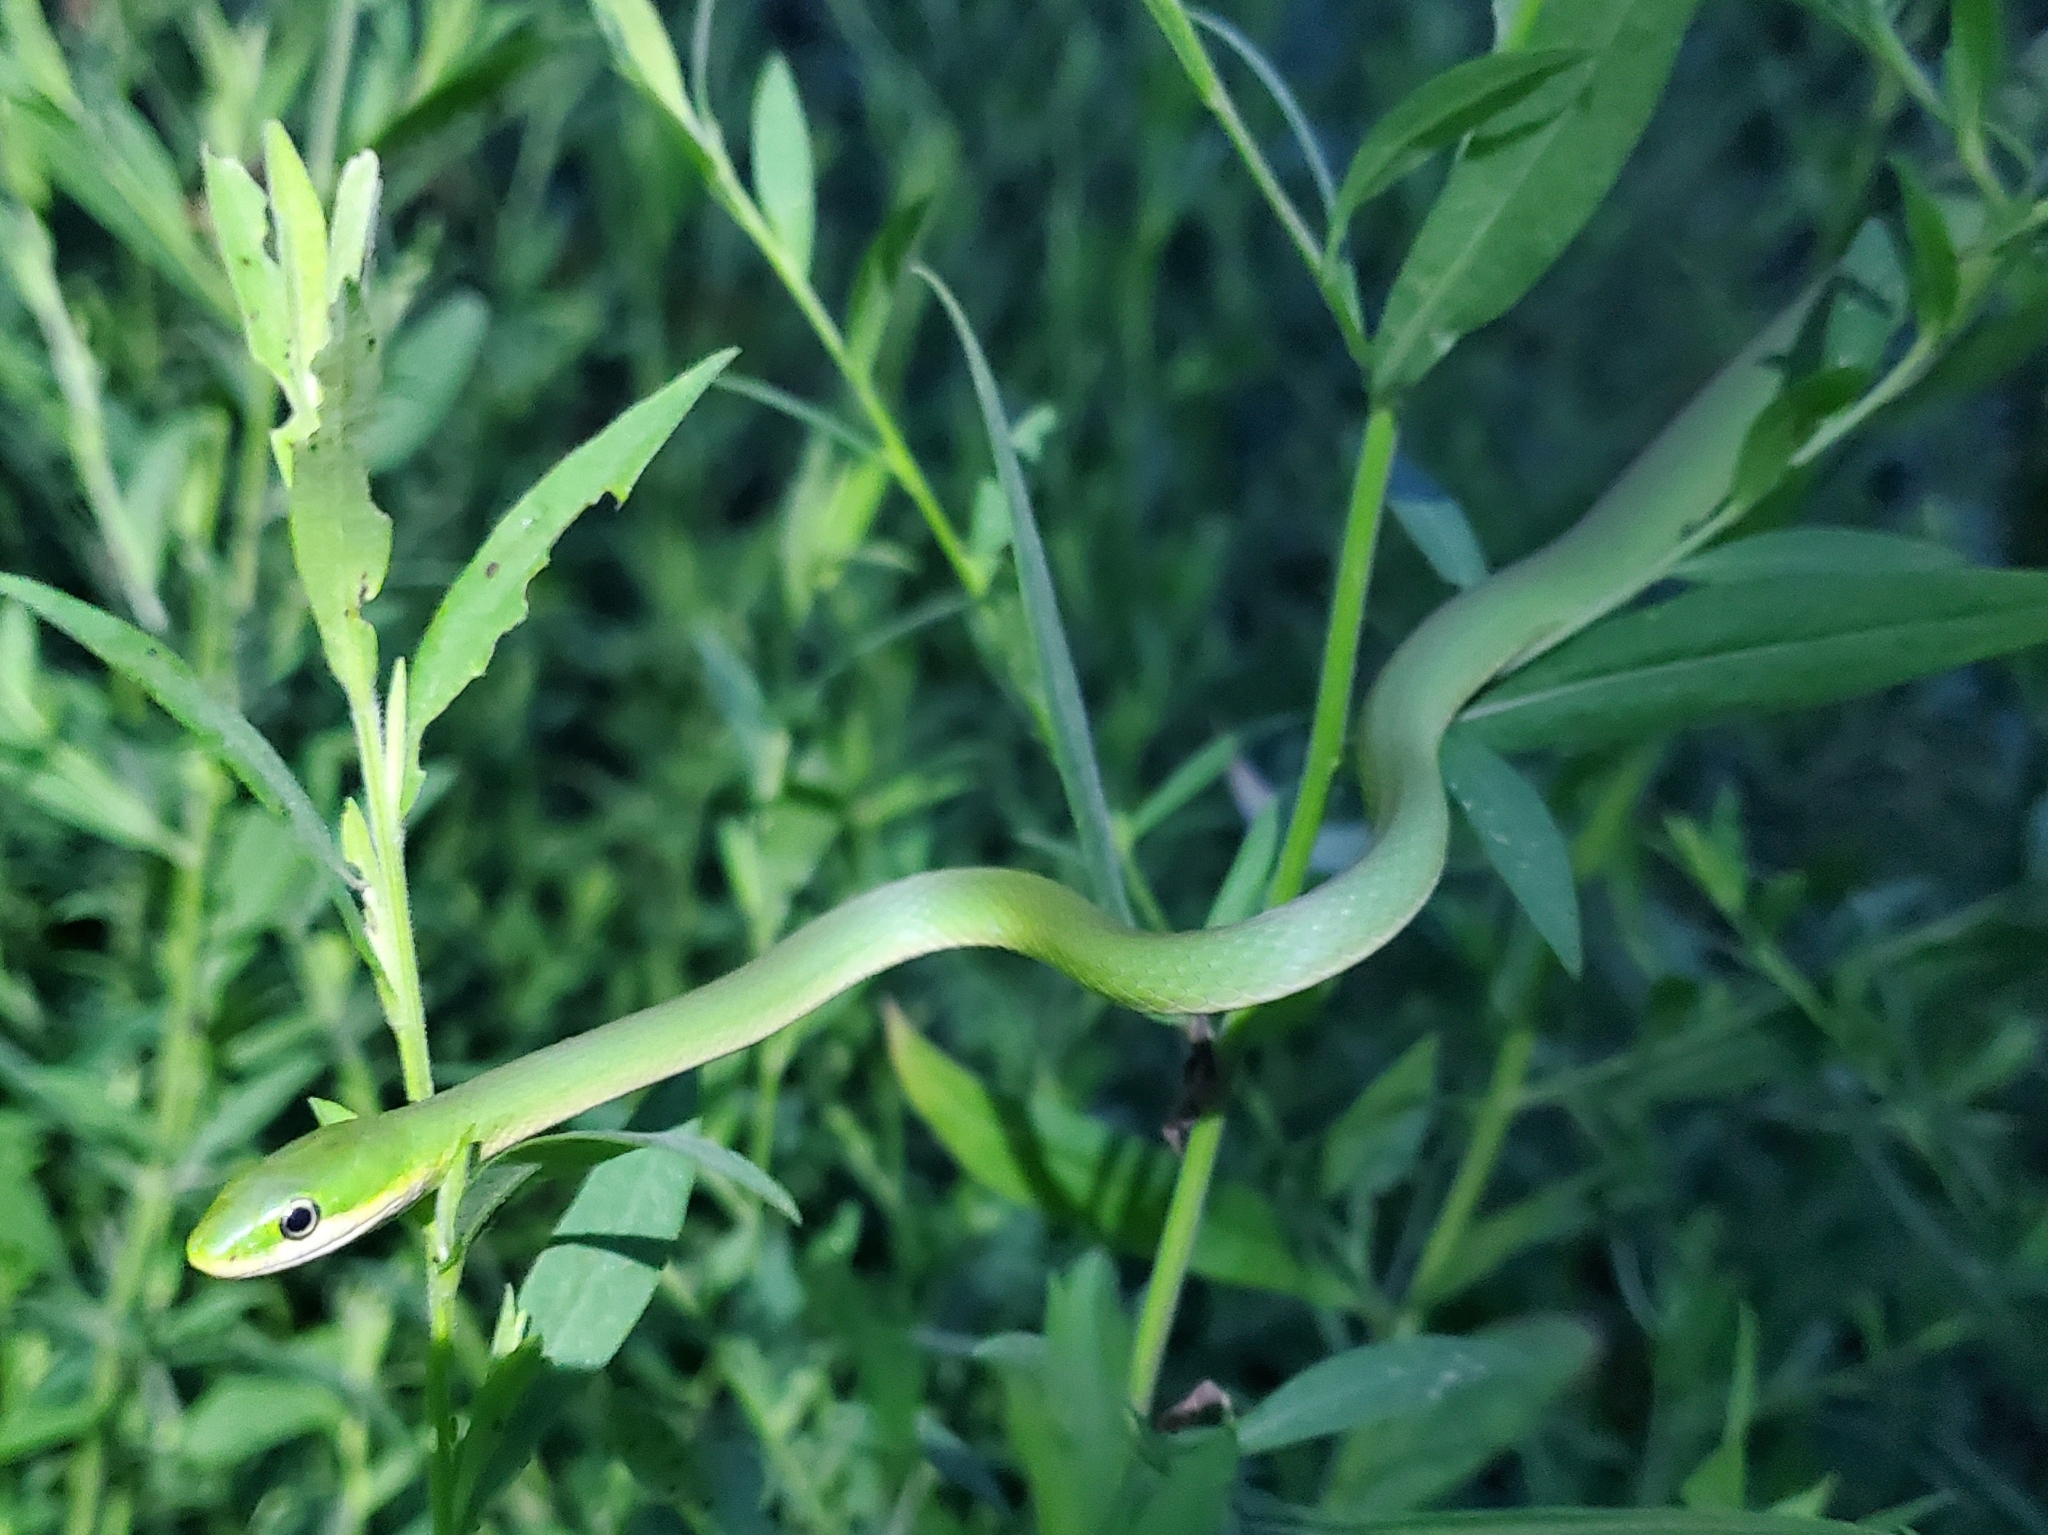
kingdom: Animalia
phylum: Chordata
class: Squamata
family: Colubridae
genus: Opheodrys
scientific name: Opheodrys aestivus
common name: Rough greensnake
